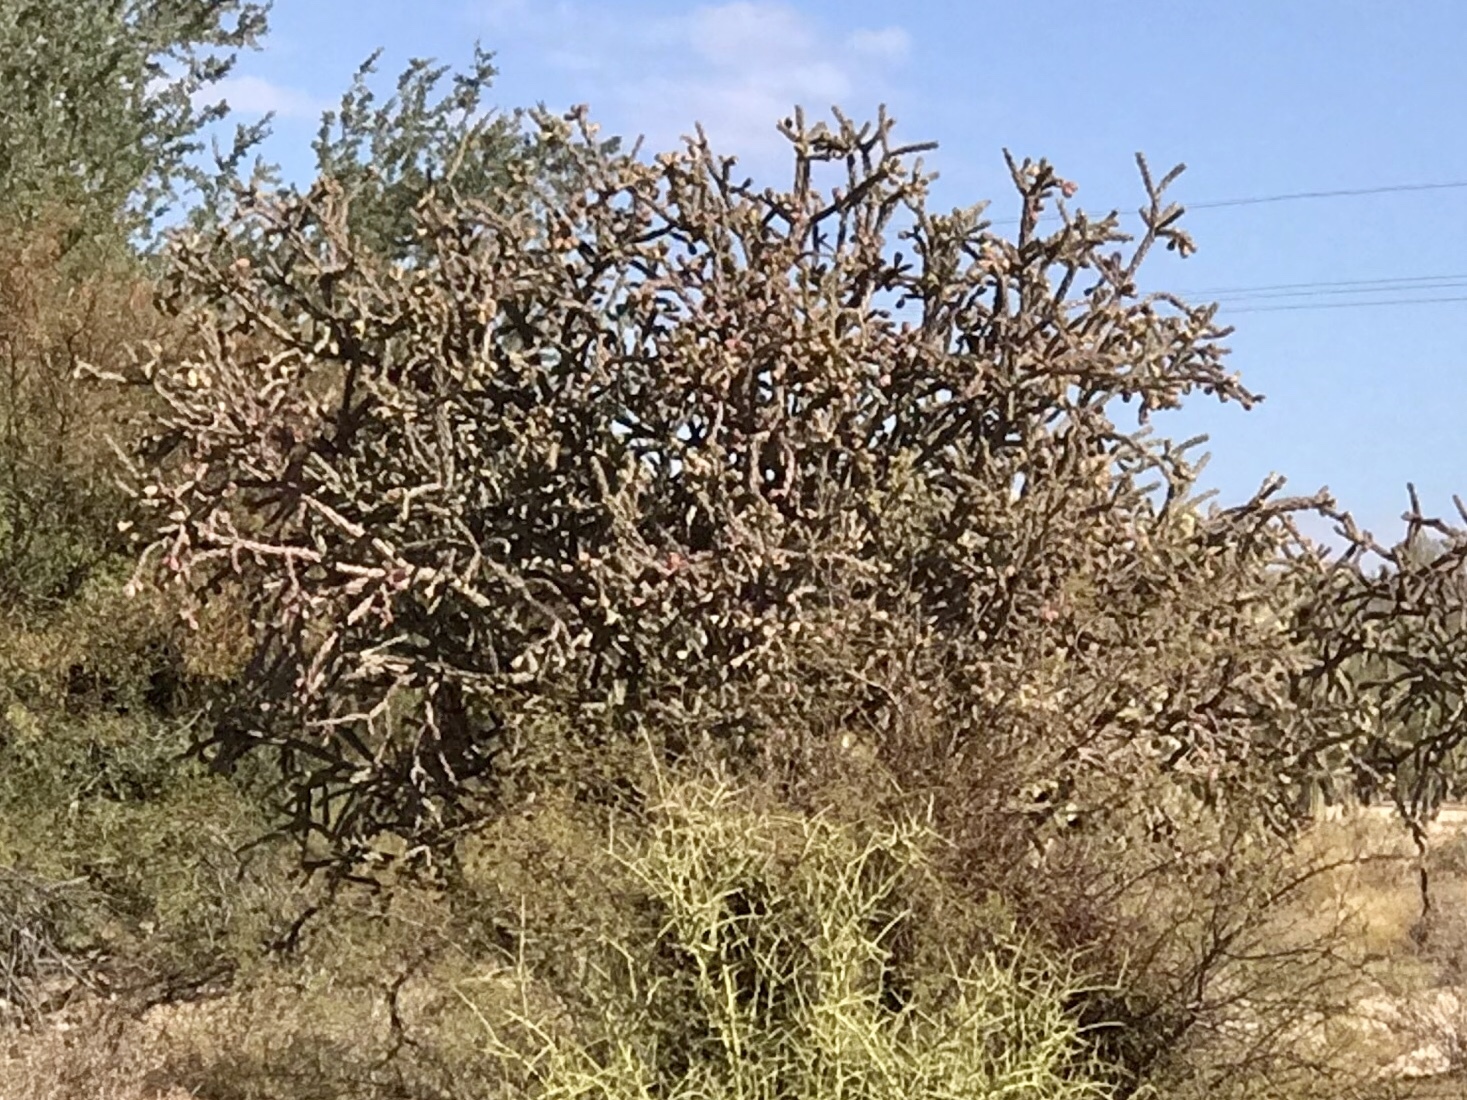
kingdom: Plantae
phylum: Tracheophyta
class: Magnoliopsida
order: Caryophyllales
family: Cactaceae
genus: Cylindropuntia
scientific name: Cylindropuntia thurberi
